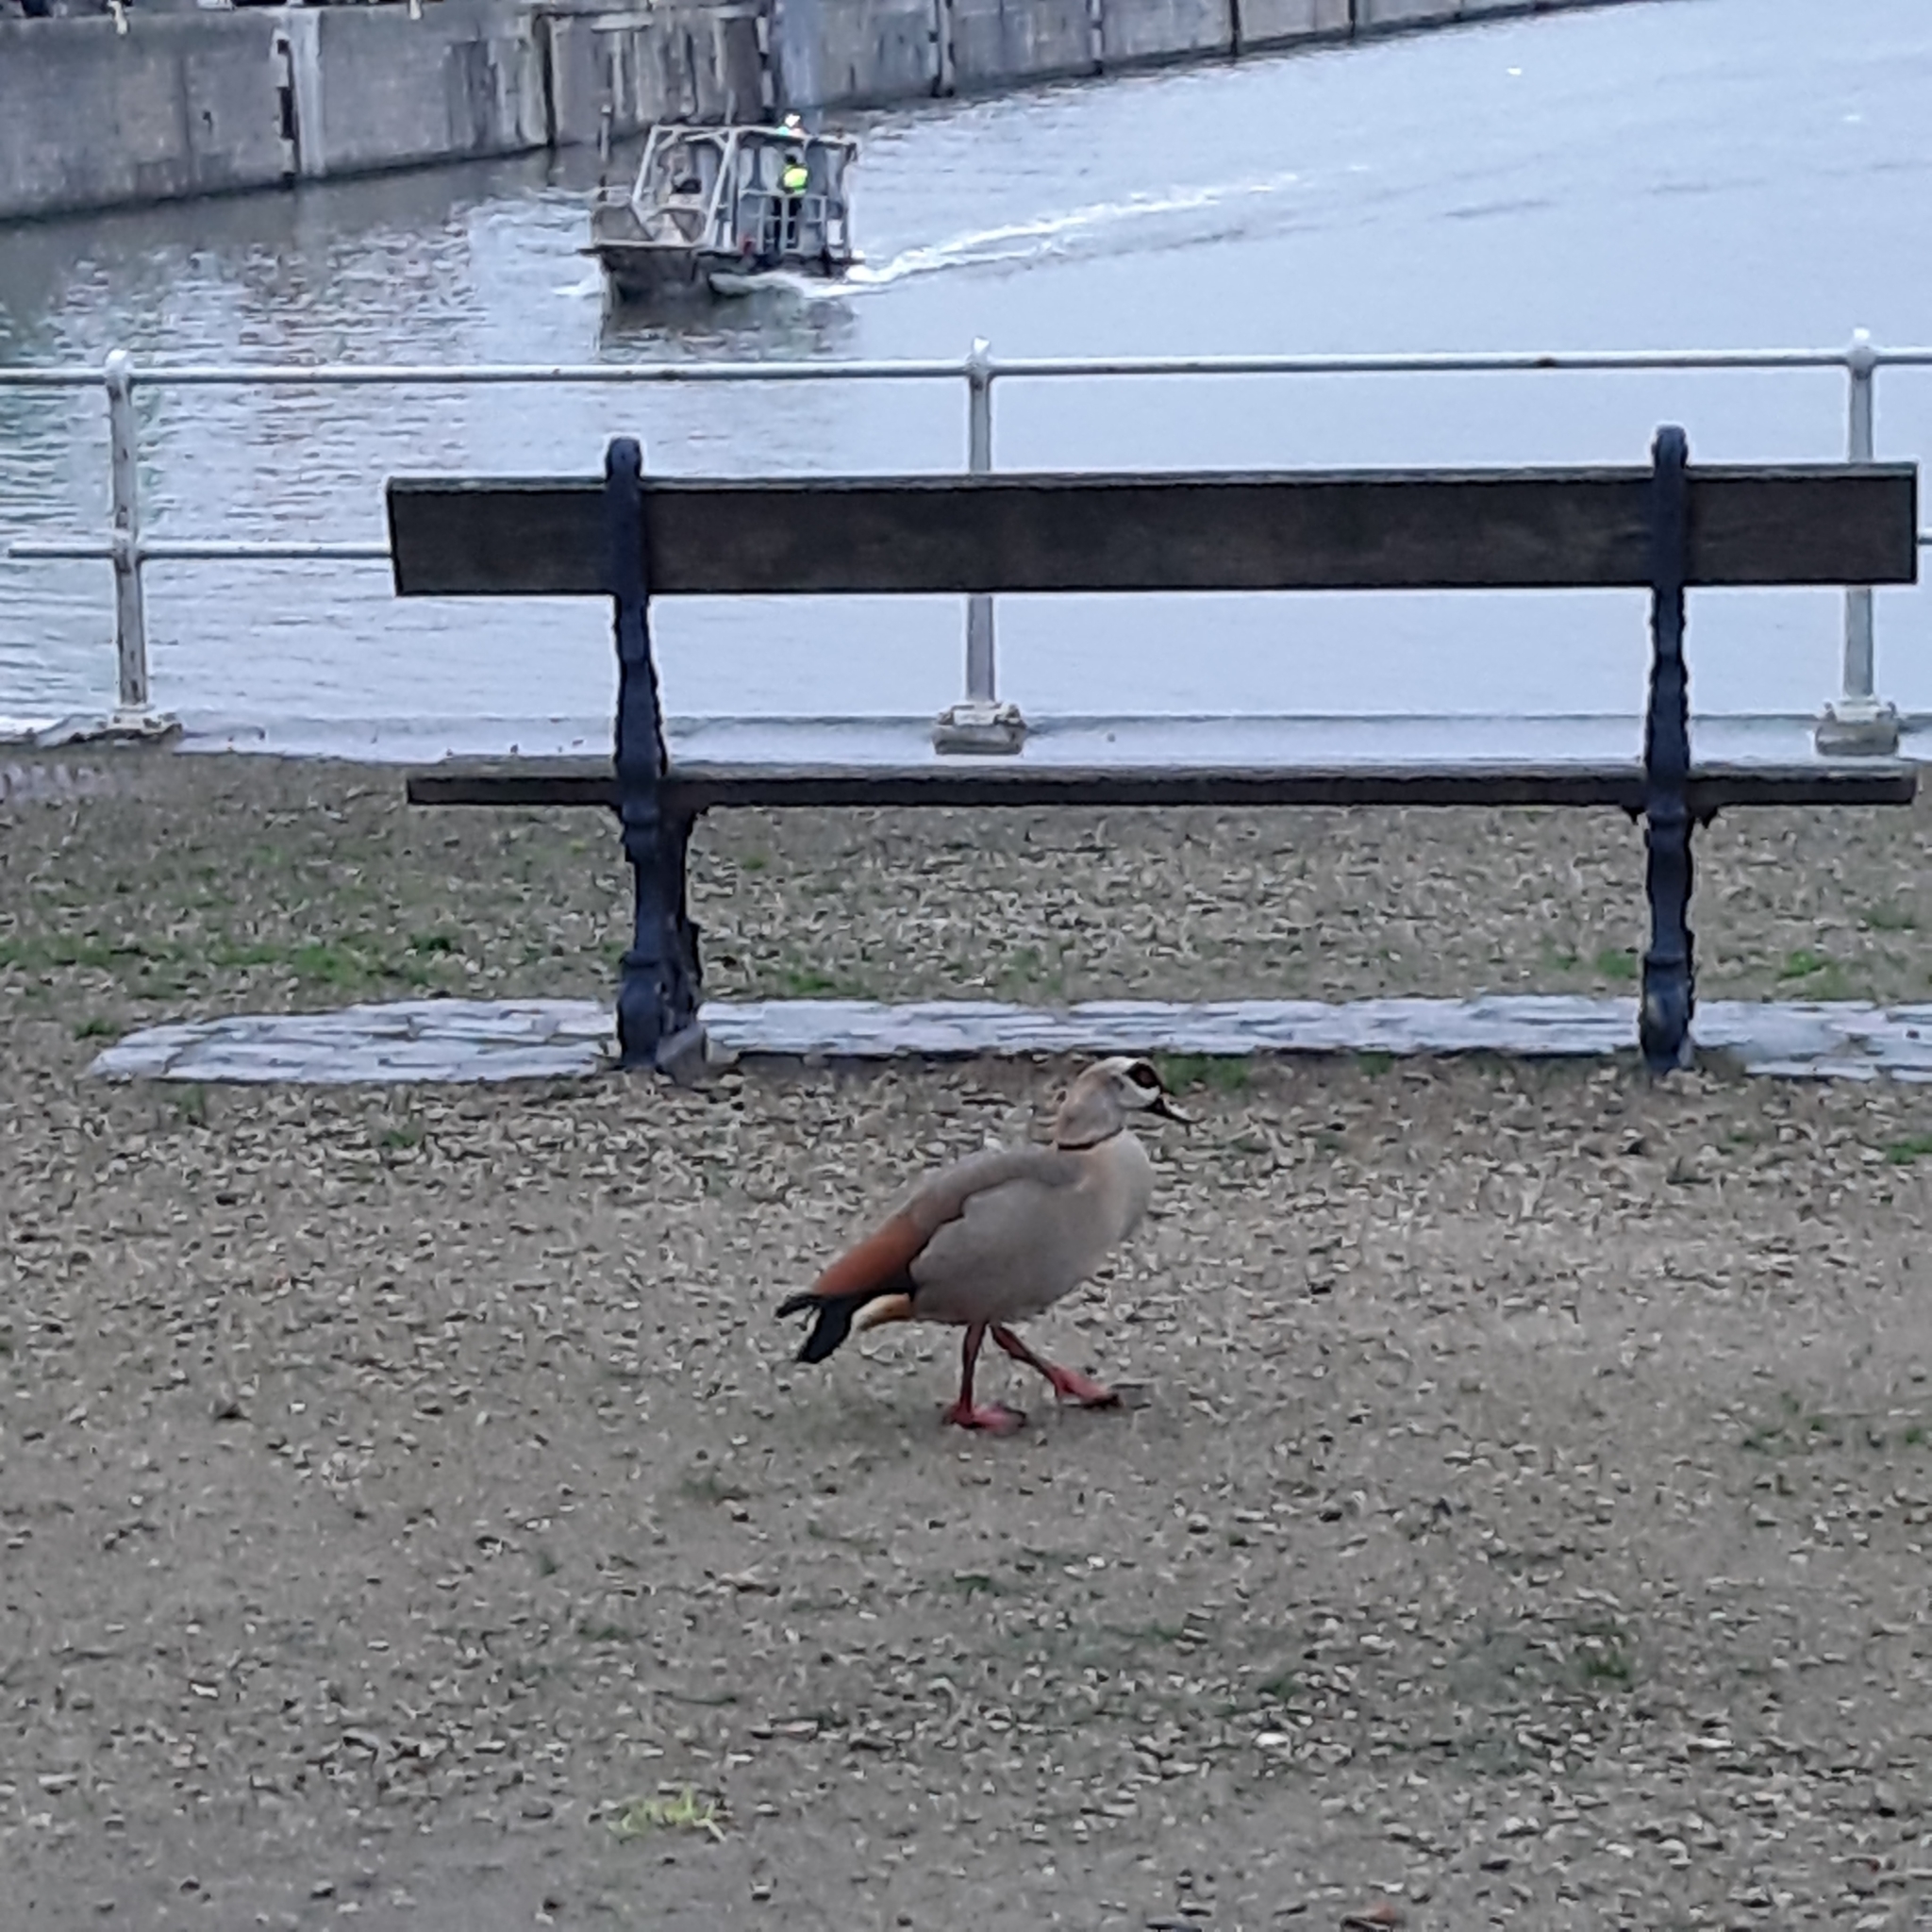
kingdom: Animalia
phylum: Chordata
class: Aves
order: Anseriformes
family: Anatidae
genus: Alopochen
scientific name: Alopochen aegyptiaca
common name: Egyptian goose
